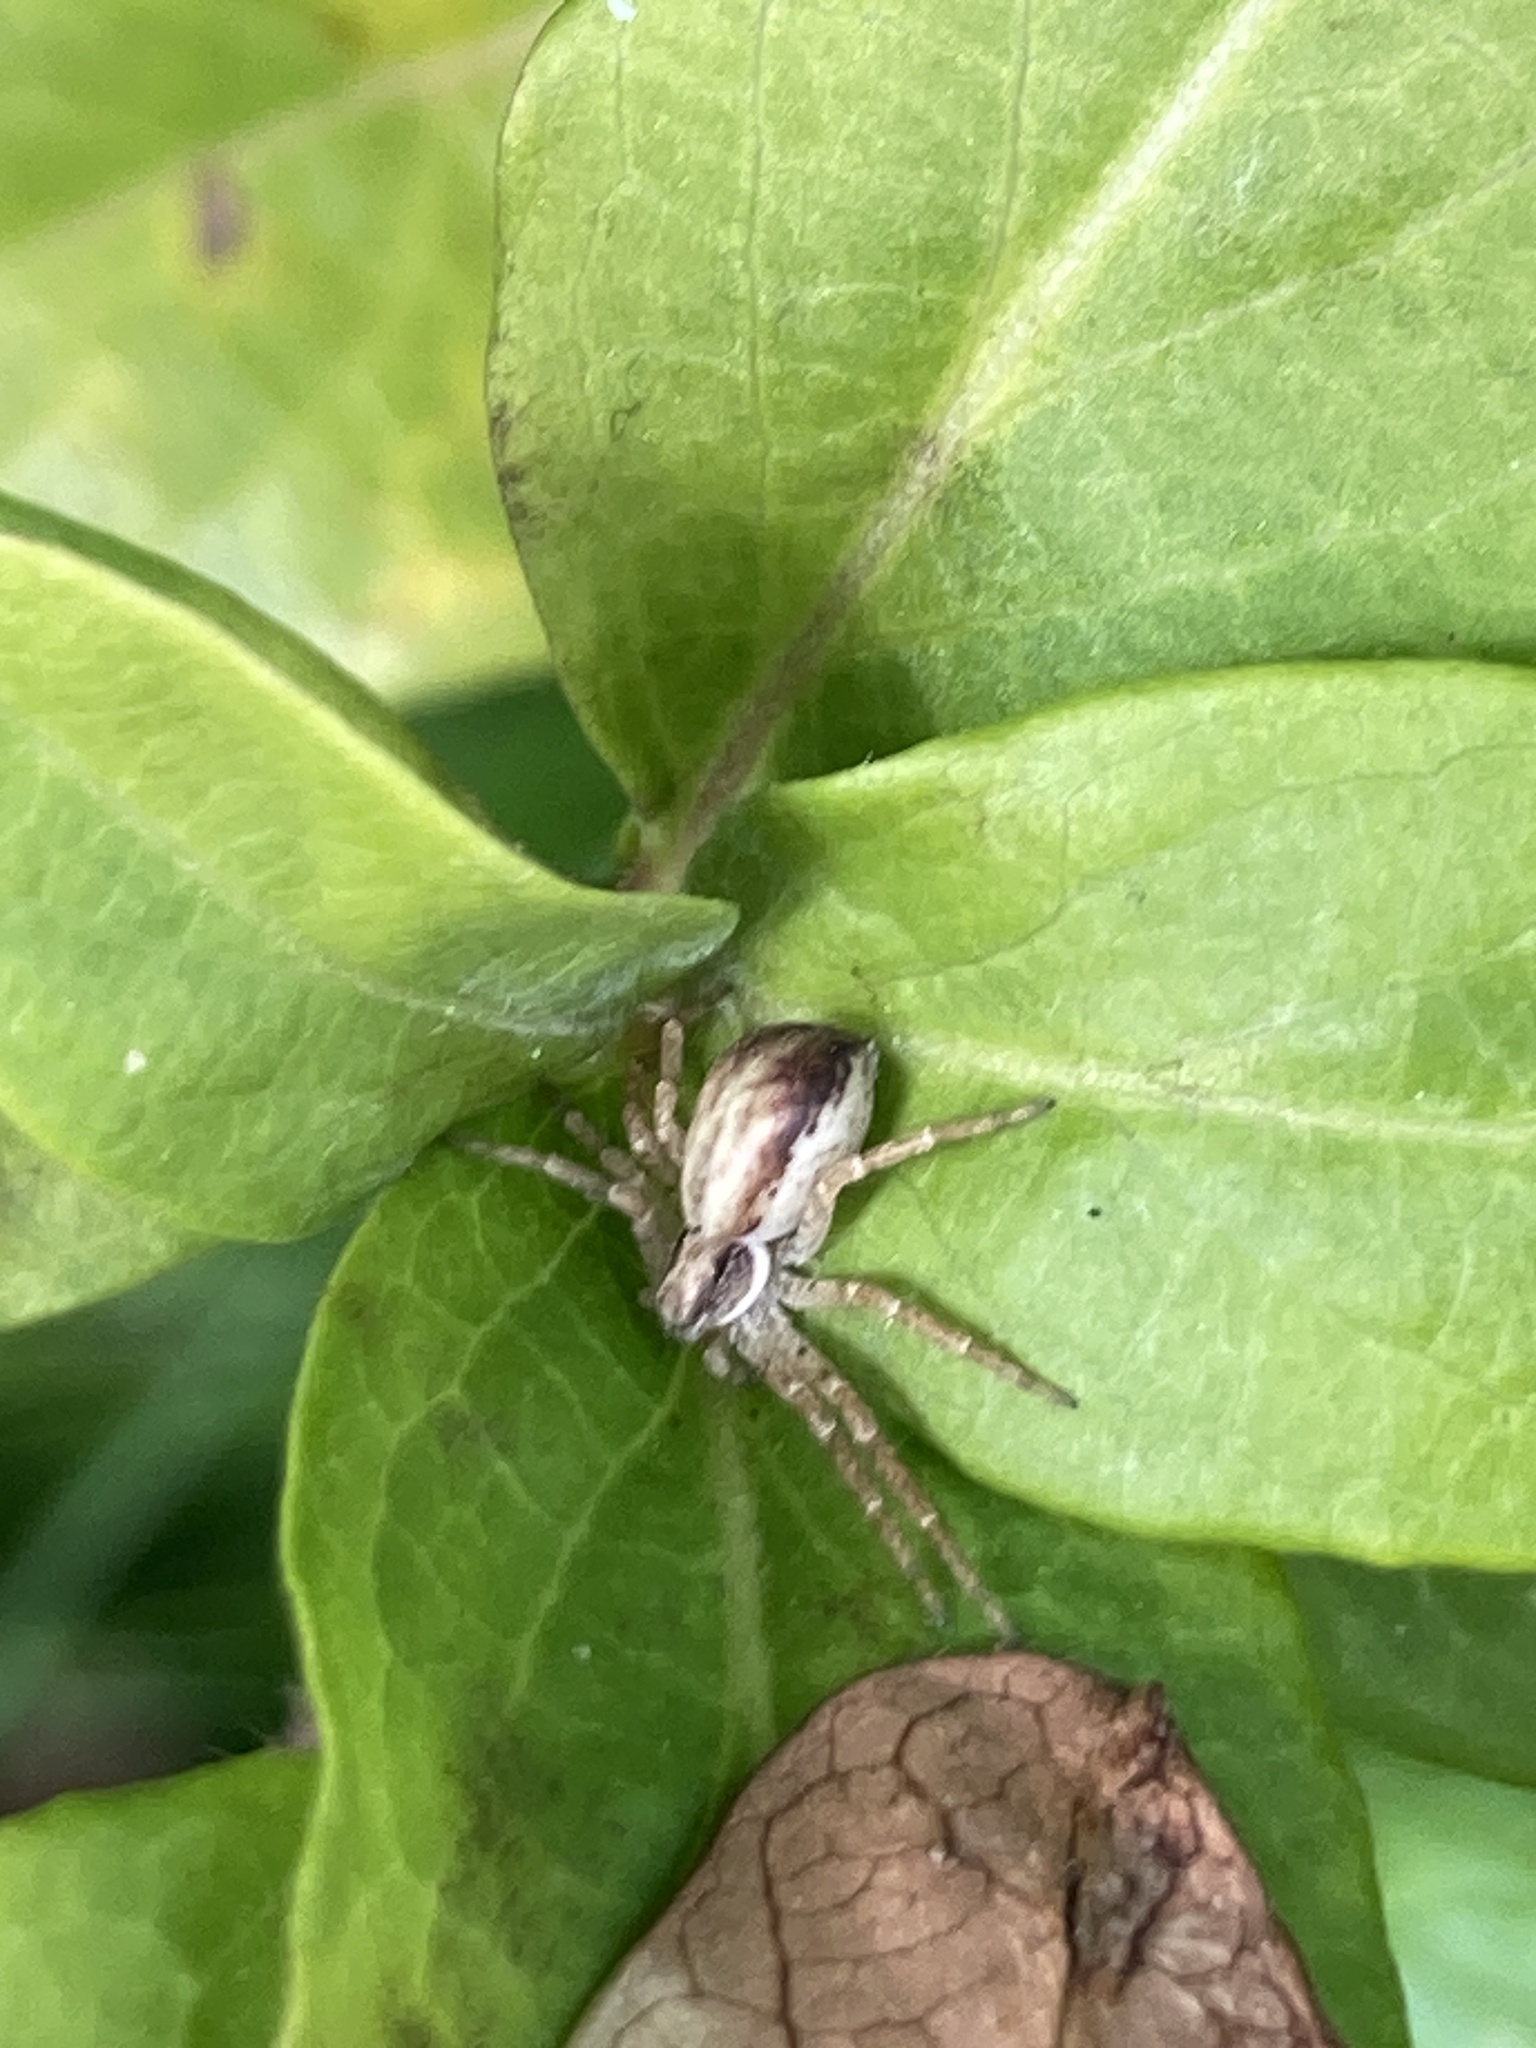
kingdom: Animalia
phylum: Arthropoda
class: Arachnida
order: Araneae
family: Philodromidae
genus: Philodromus
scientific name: Philodromus dispar
